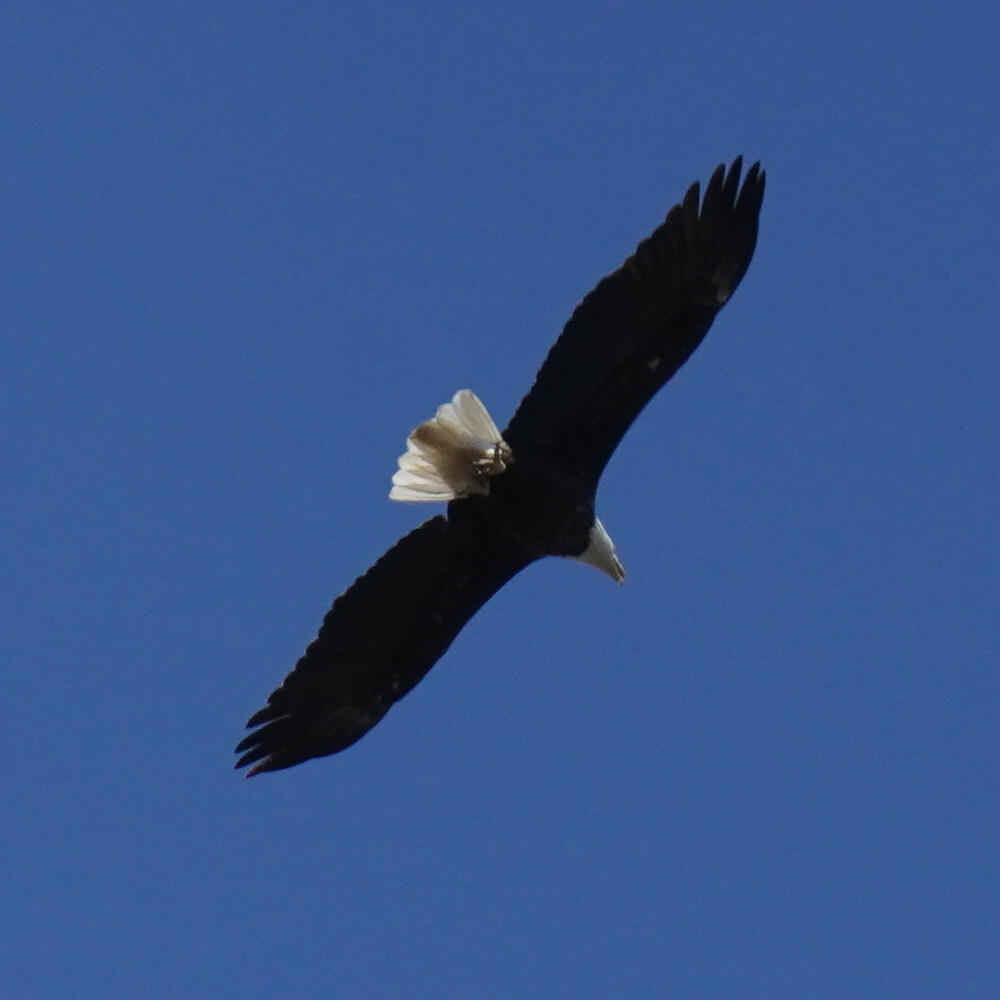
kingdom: Animalia
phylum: Chordata
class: Aves
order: Accipitriformes
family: Accipitridae
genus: Haliaeetus
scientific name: Haliaeetus leucocephalus
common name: Bald eagle
